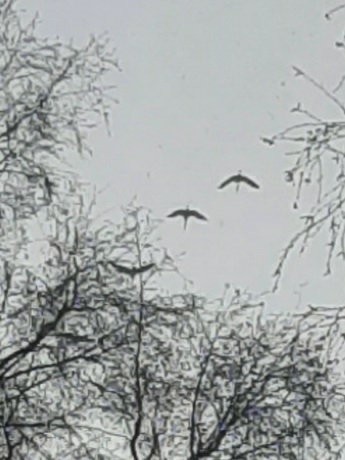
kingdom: Animalia
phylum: Chordata
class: Aves
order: Gruiformes
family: Gruidae
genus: Grus
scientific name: Grus grus
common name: Common crane
